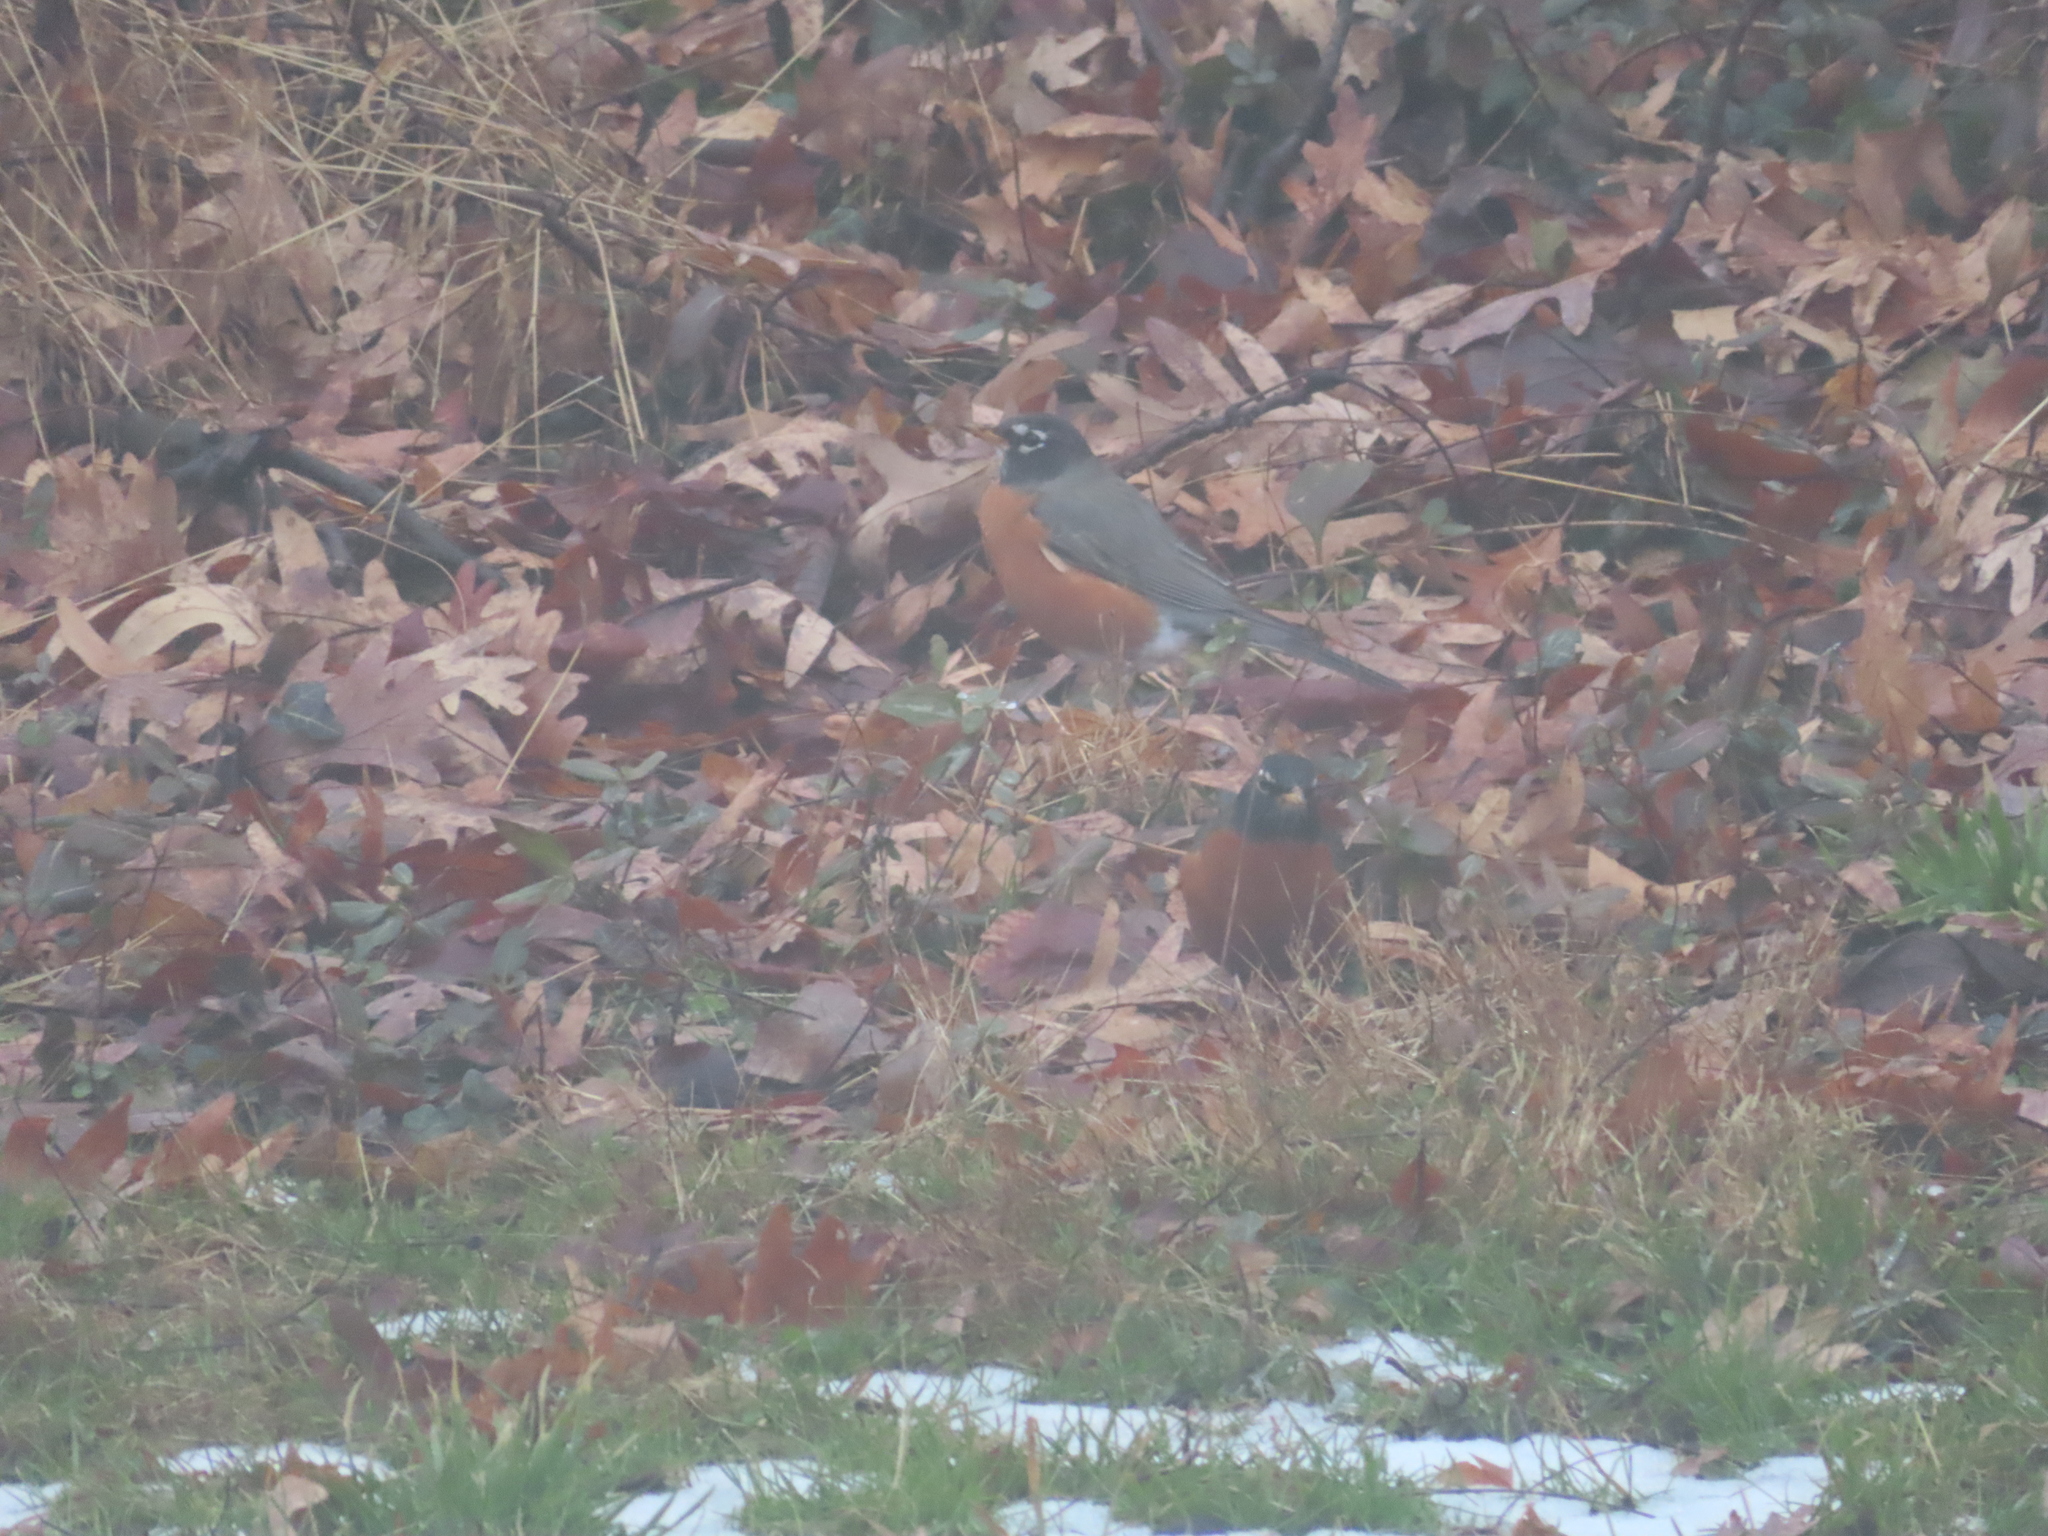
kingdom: Animalia
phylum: Chordata
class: Aves
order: Passeriformes
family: Turdidae
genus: Turdus
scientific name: Turdus migratorius
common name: American robin
